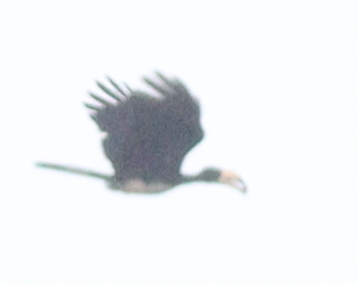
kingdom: Animalia
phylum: Chordata
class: Aves
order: Bucerotiformes
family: Bucerotidae
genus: Lophoceros
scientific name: Lophoceros fasciatus
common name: African pied hornbill
